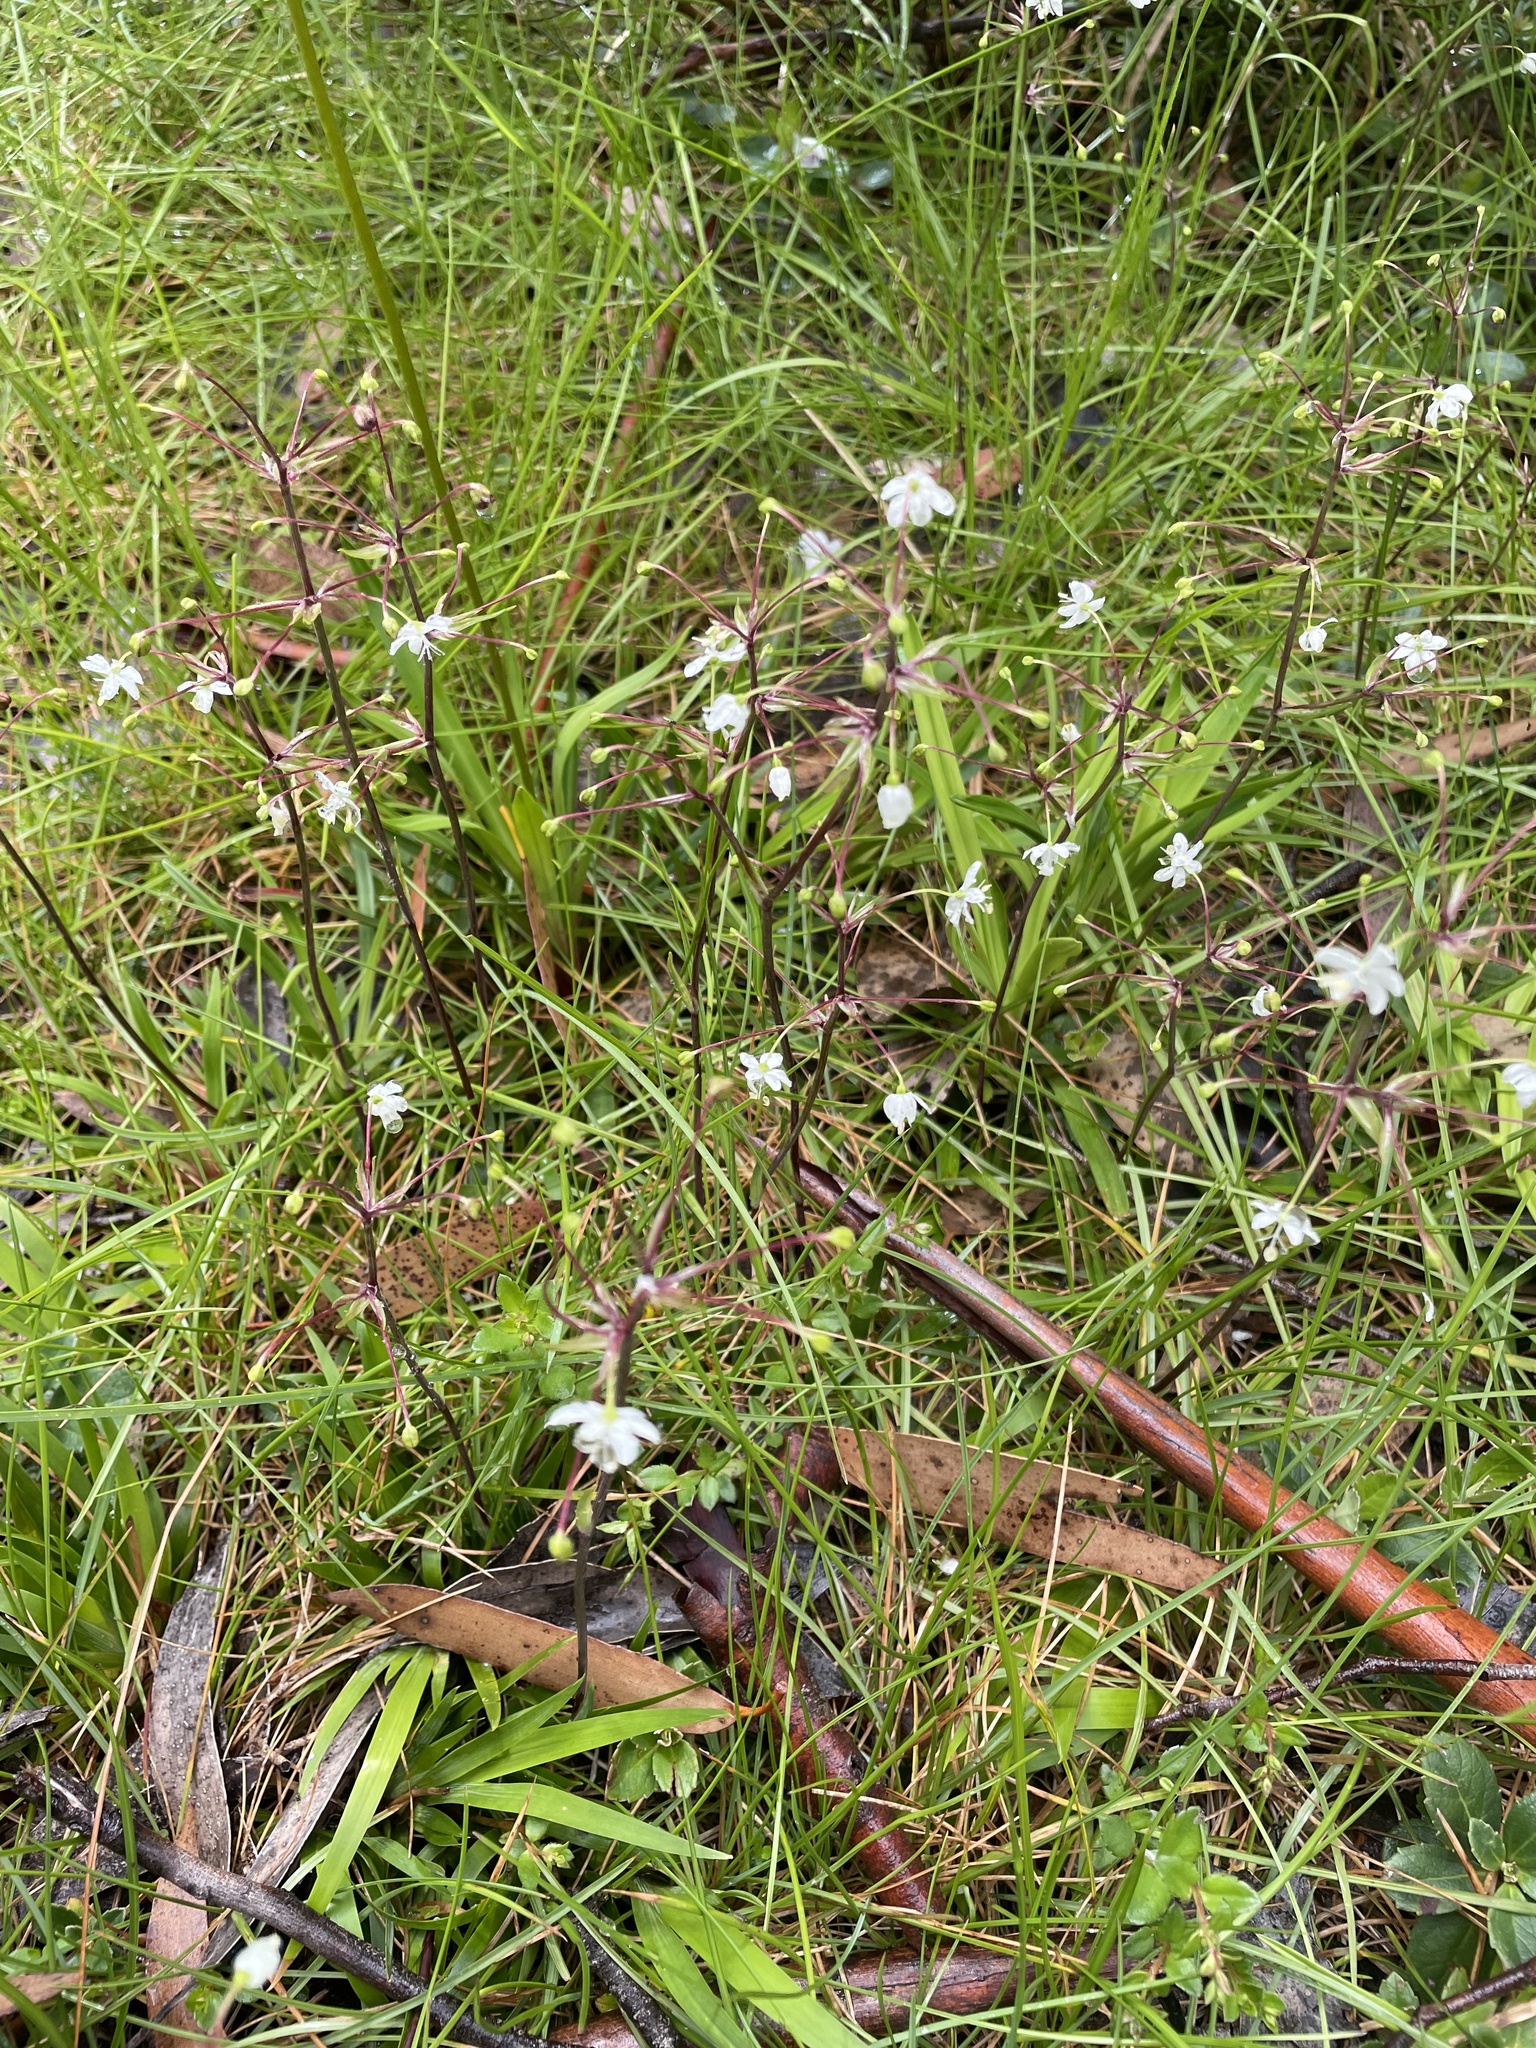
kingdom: Plantae
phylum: Tracheophyta
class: Liliopsida
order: Asparagales
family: Iridaceae
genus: Libertia
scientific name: Libertia pulchella
